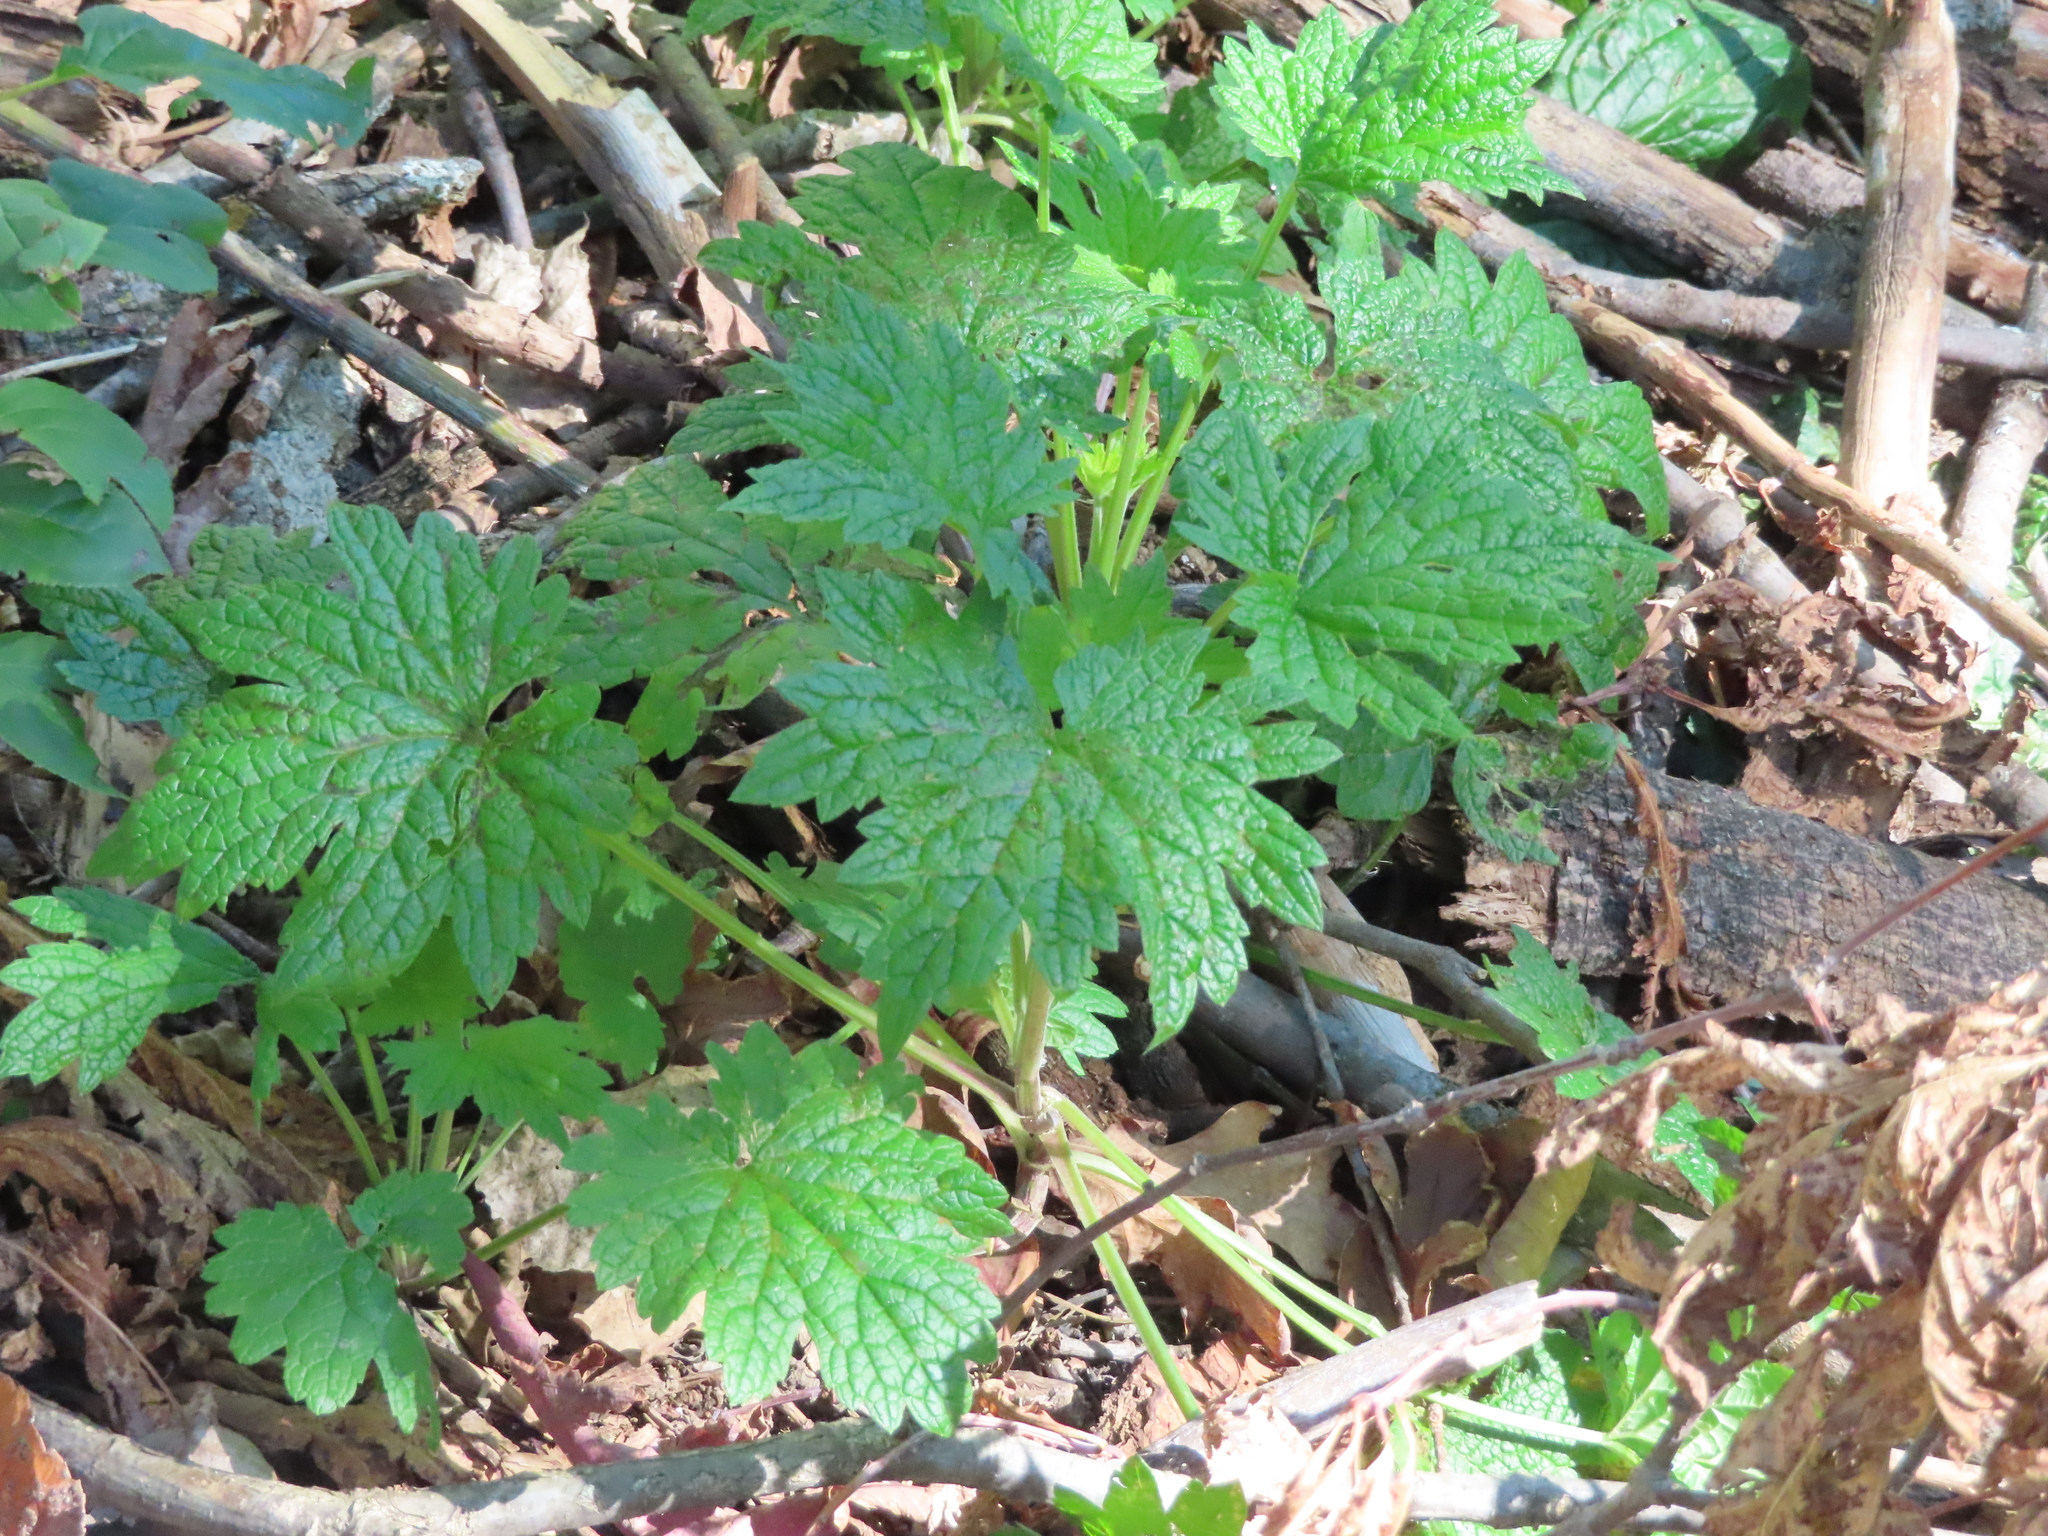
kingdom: Plantae
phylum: Tracheophyta
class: Magnoliopsida
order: Lamiales
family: Lamiaceae
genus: Leonurus
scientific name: Leonurus cardiaca
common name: Motherwort
